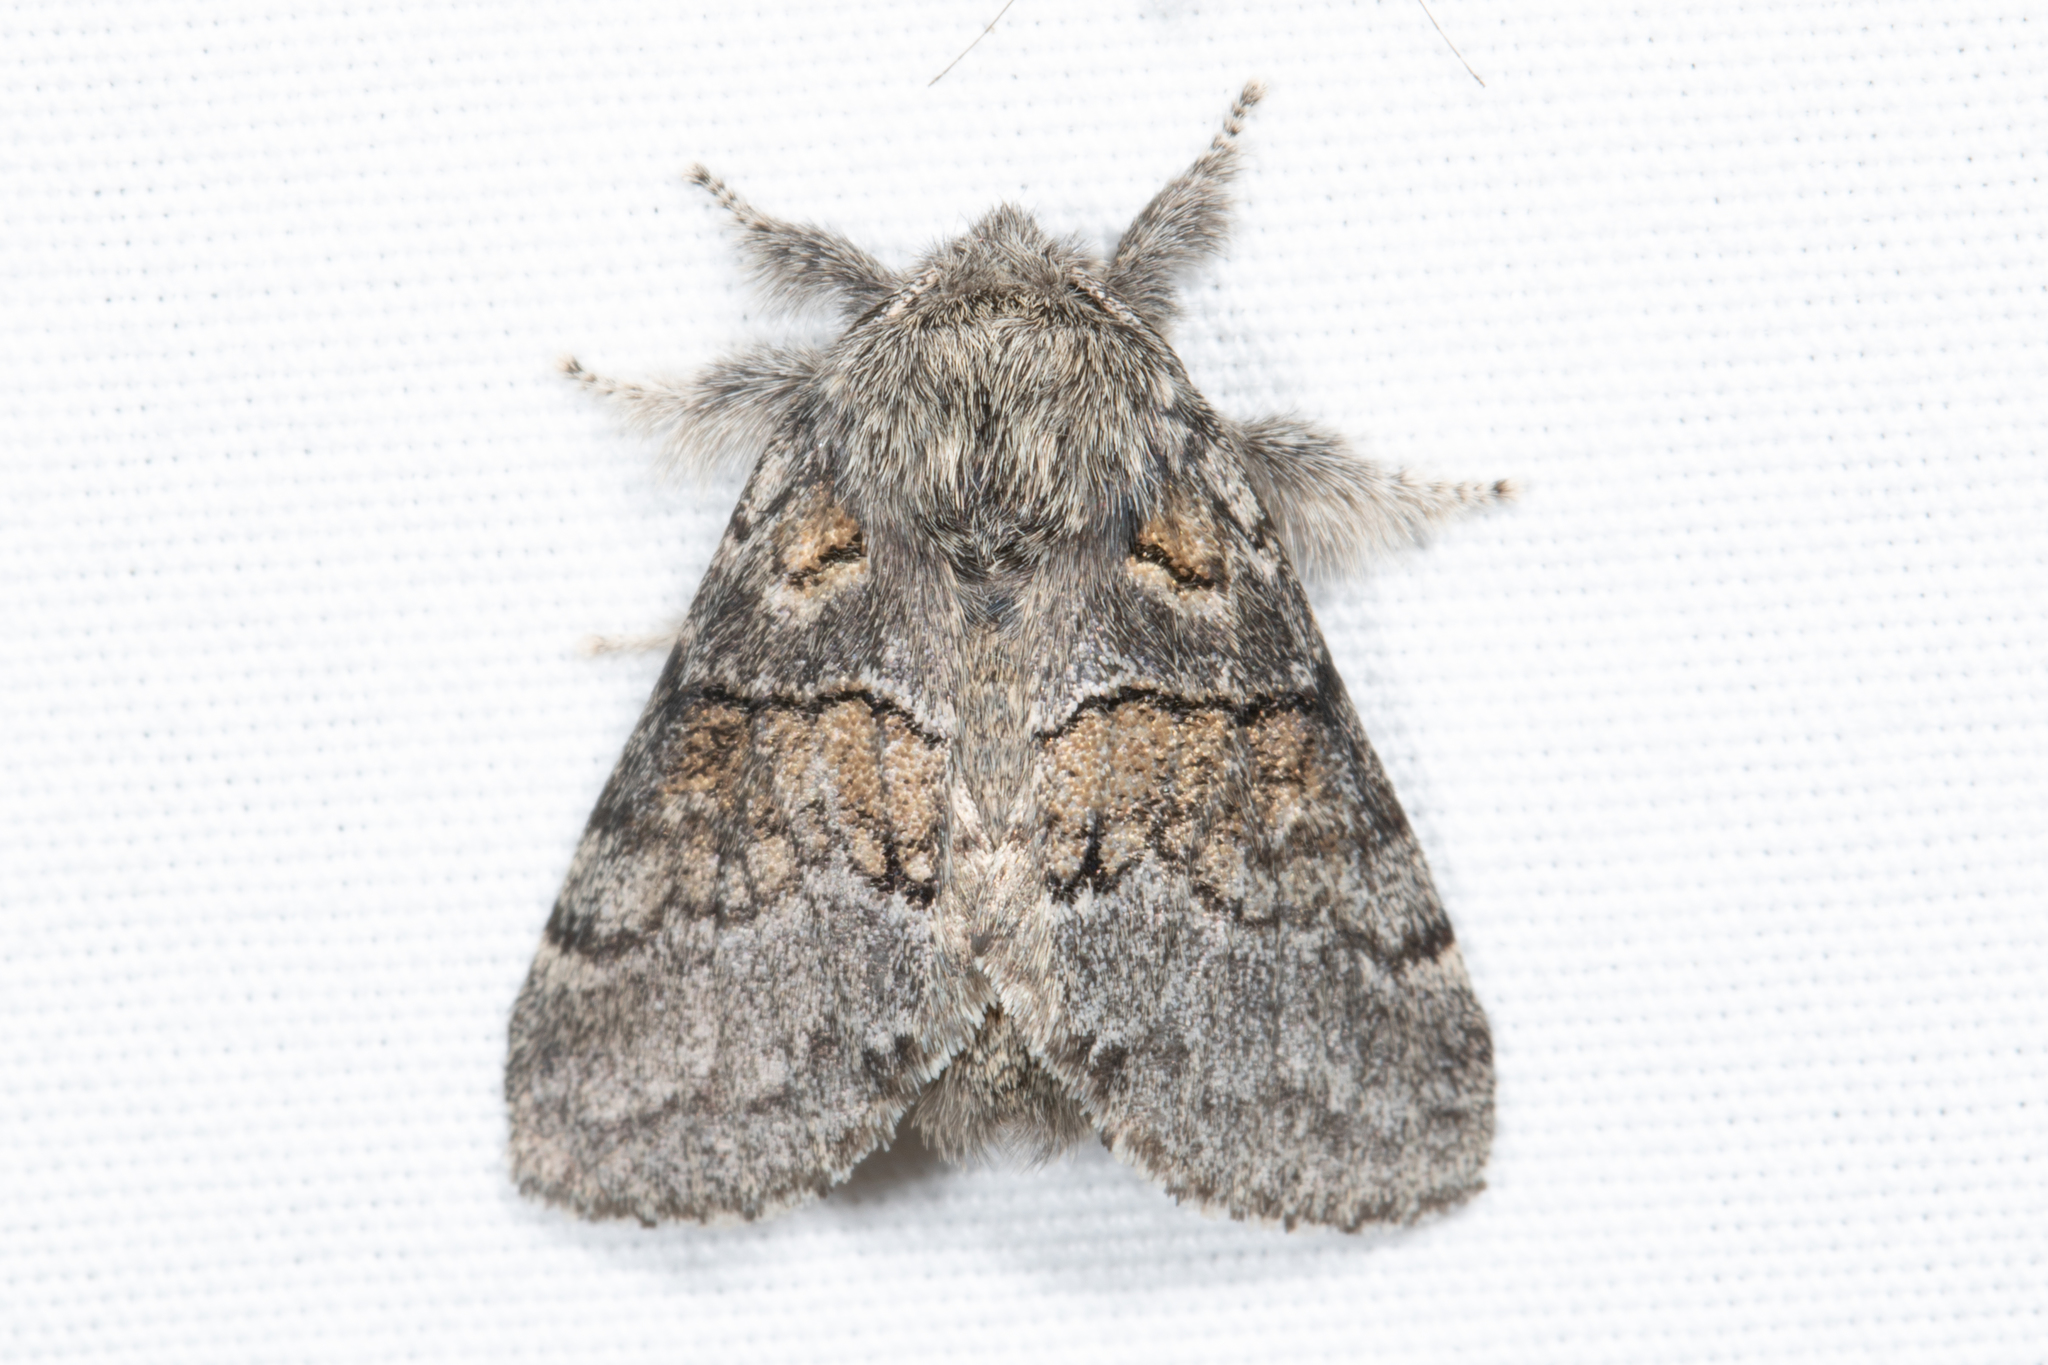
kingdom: Animalia
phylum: Arthropoda
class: Insecta
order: Lepidoptera
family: Notodontidae
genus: Gluphisia
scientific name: Gluphisia septentrionis
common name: Common gluphisia
